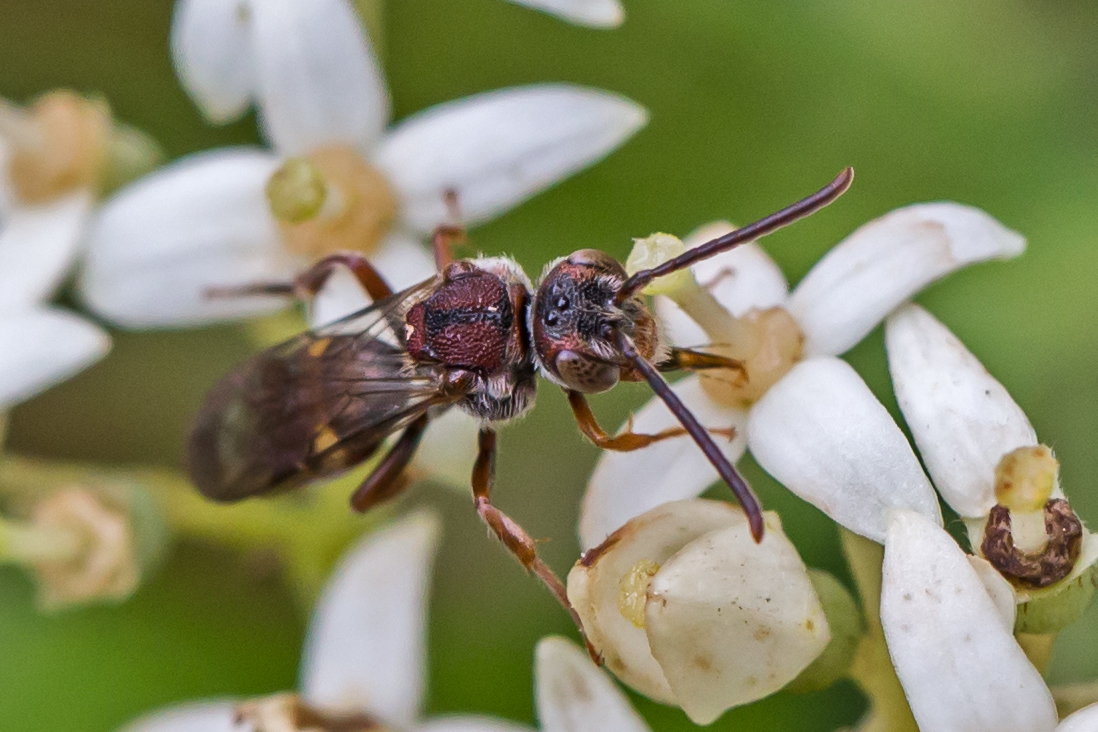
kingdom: Animalia
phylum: Arthropoda
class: Insecta
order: Hymenoptera
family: Apidae
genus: Nomada
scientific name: Nomada
